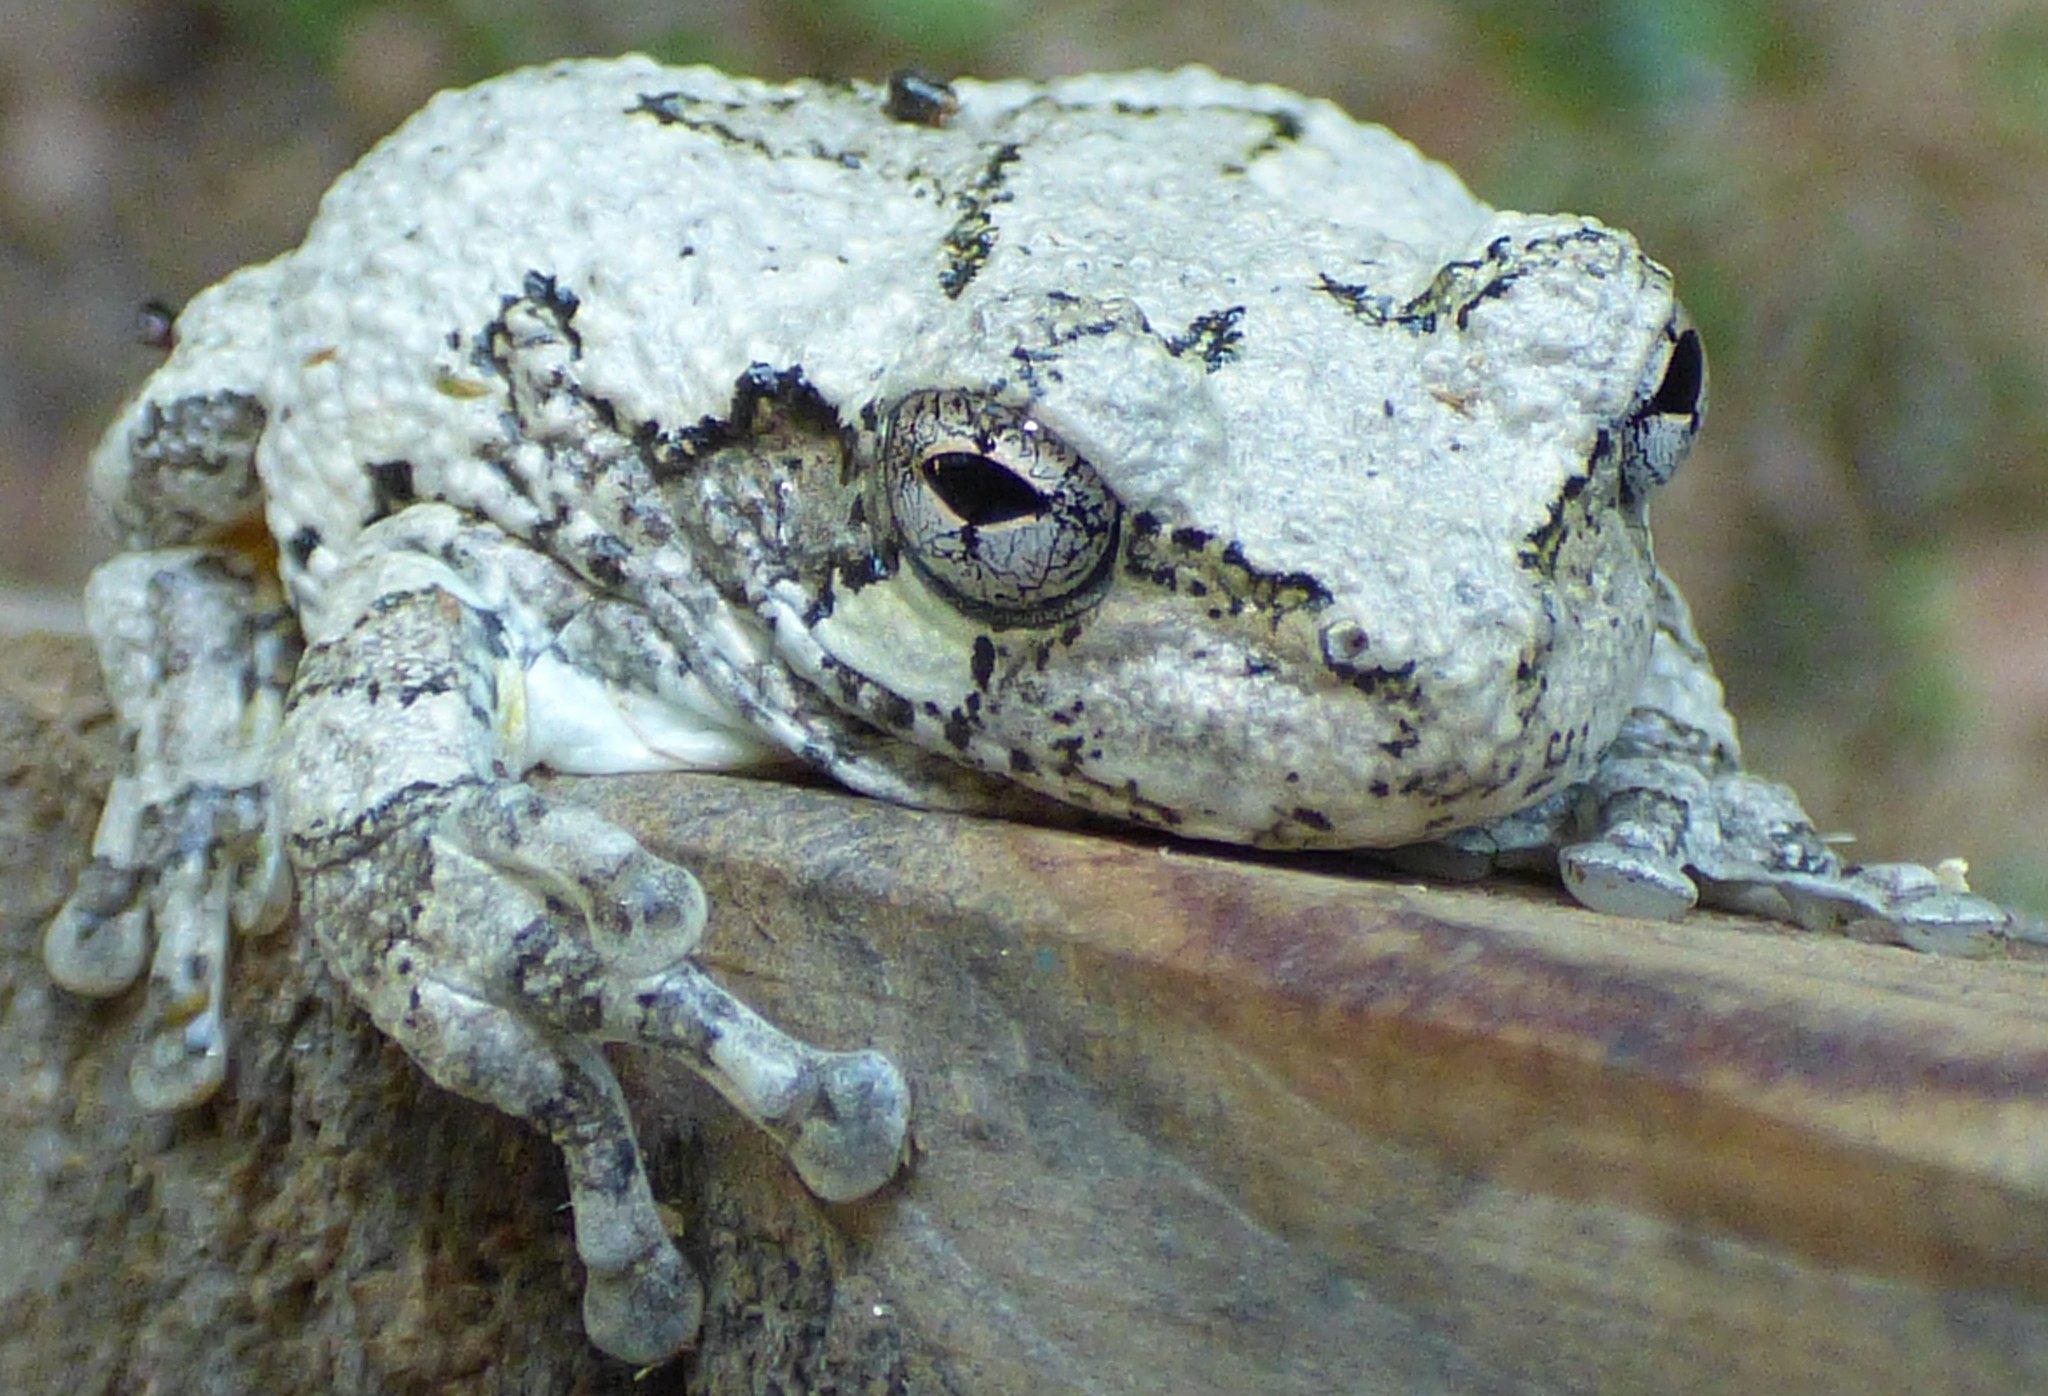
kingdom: Animalia
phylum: Chordata
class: Amphibia
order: Anura
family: Hylidae
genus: Dryophytes
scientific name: Dryophytes chrysoscelis
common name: Cope's gray treefrog
